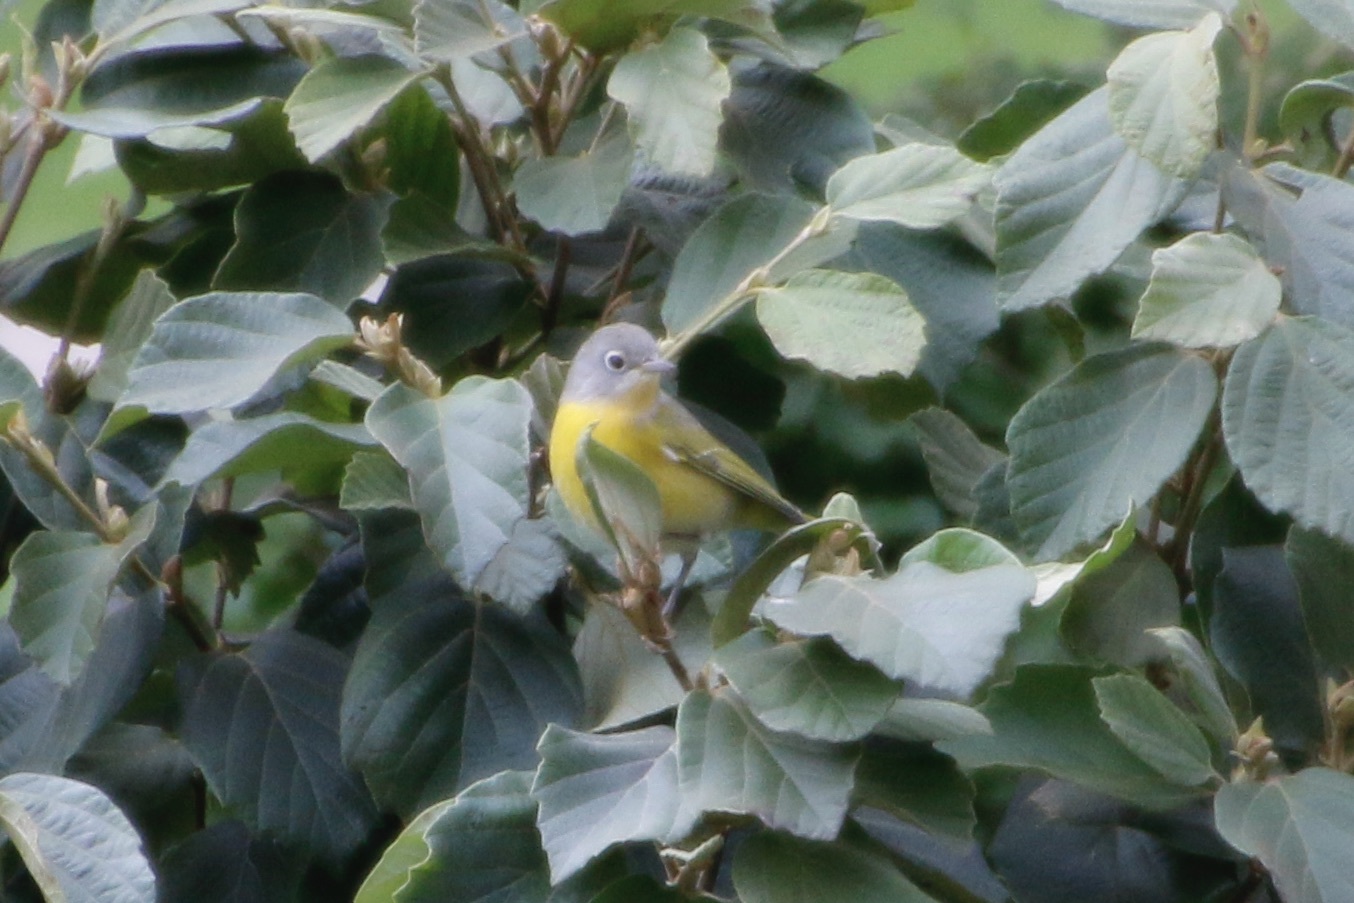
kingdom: Animalia
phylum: Chordata
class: Aves
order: Passeriformes
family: Parulidae
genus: Leiothlypis
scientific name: Leiothlypis ruficapilla
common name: Nashville warbler
